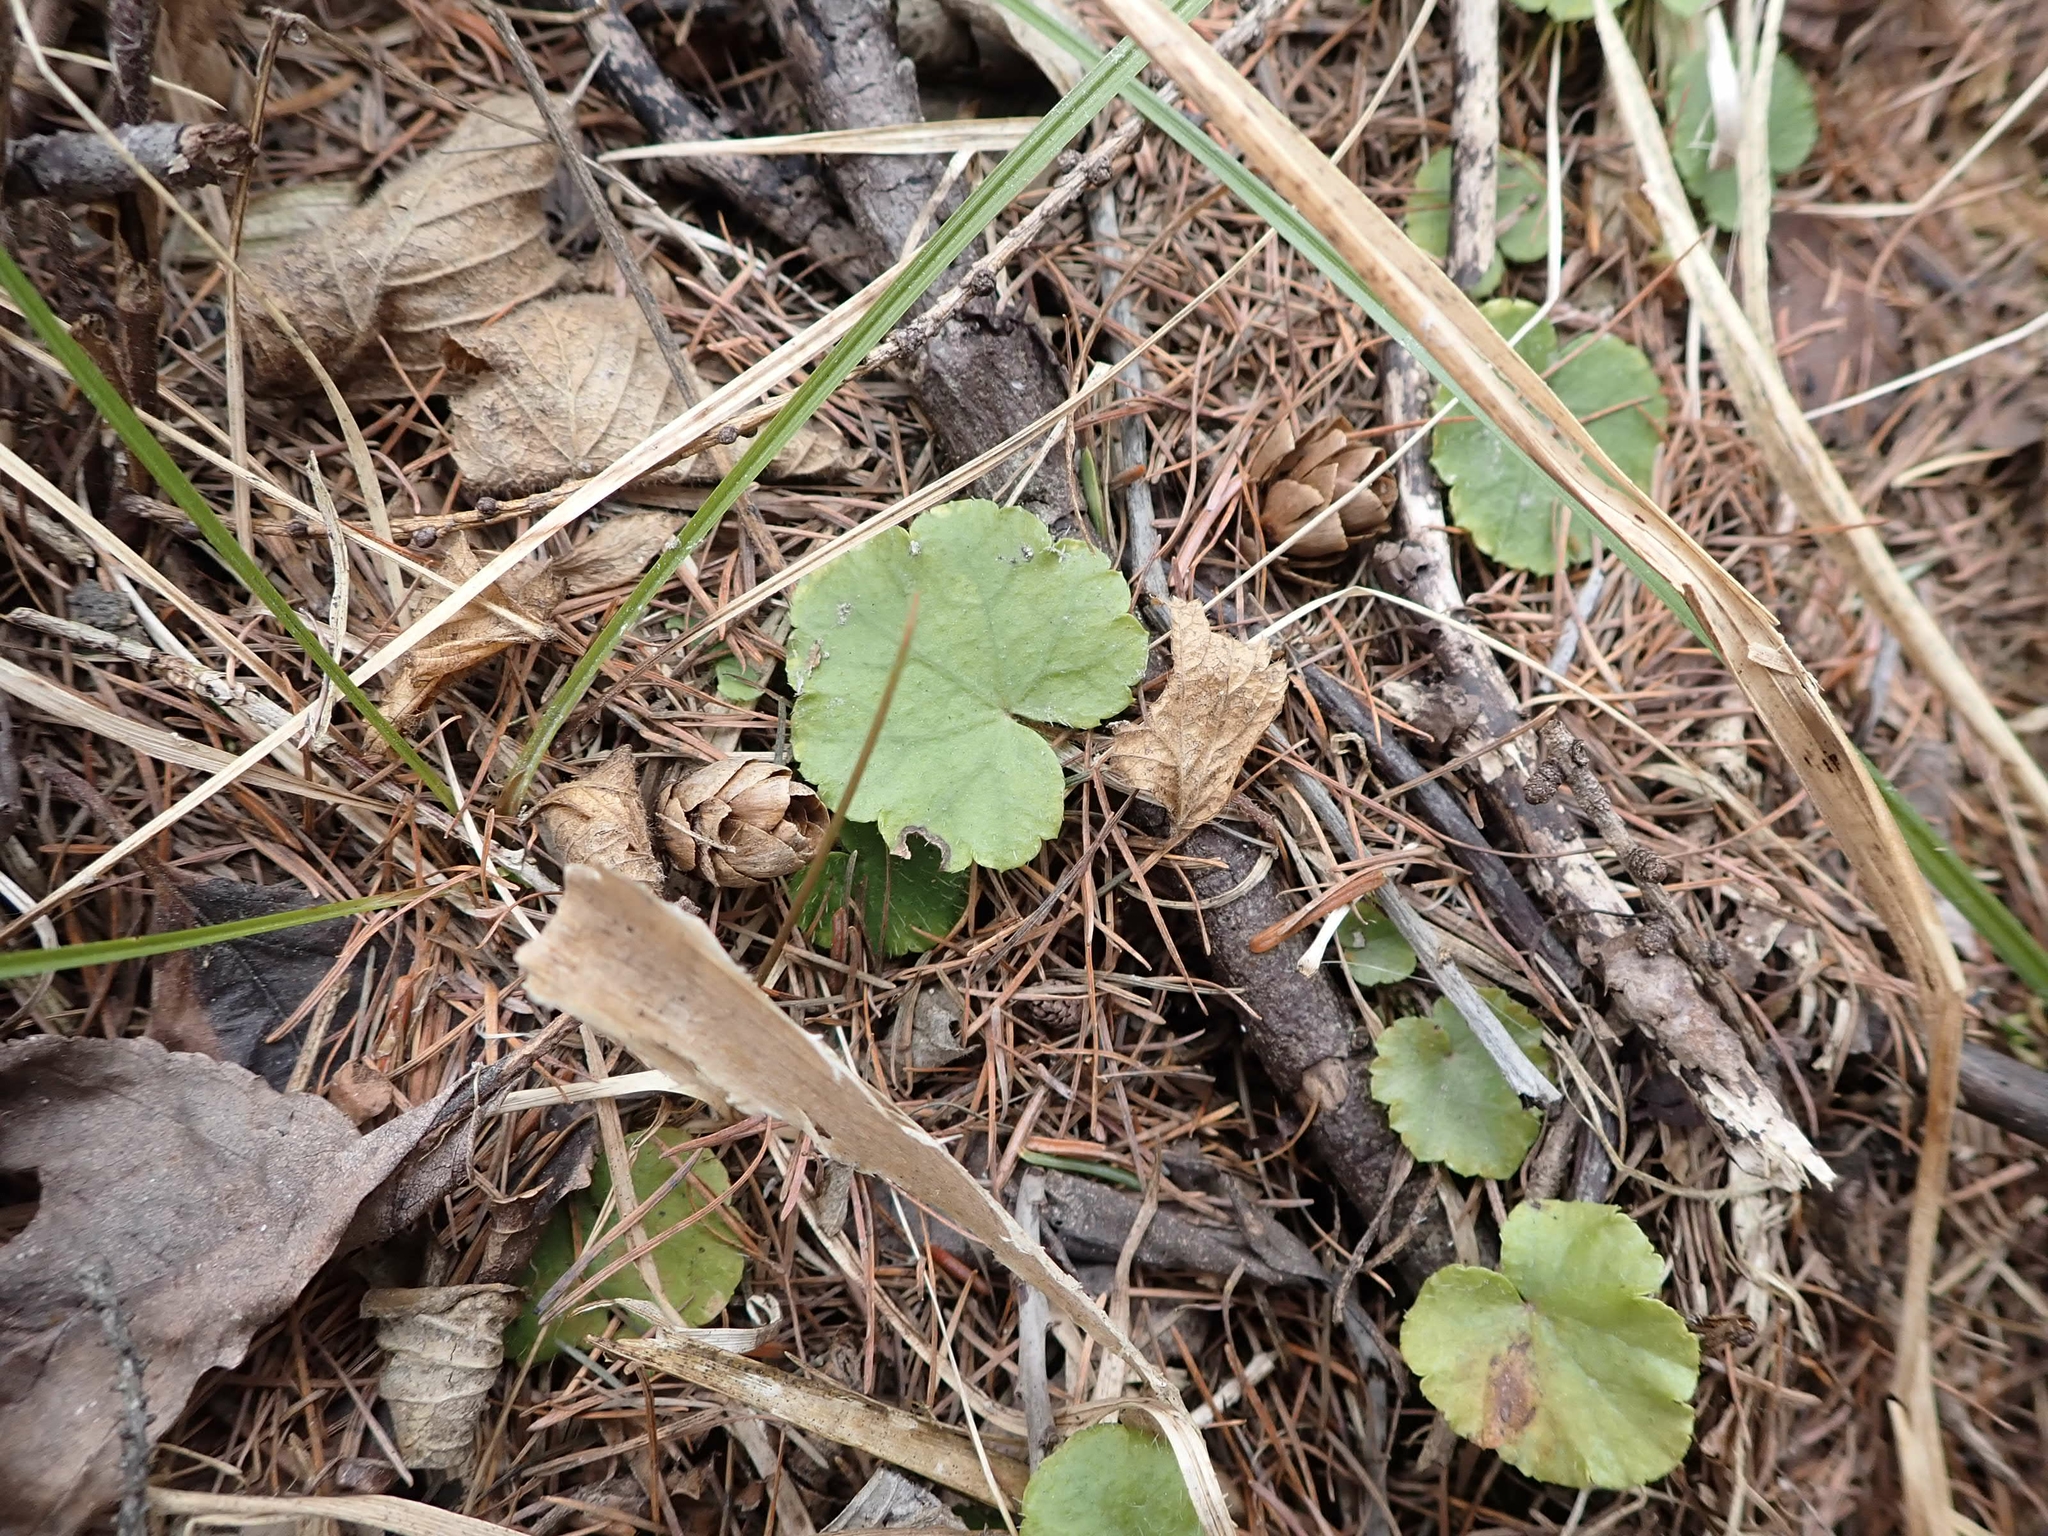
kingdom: Plantae
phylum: Tracheophyta
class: Magnoliopsida
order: Saxifragales
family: Saxifragaceae
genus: Mitella
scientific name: Mitella nuda
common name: Bare-stemmed bishop's-cap
